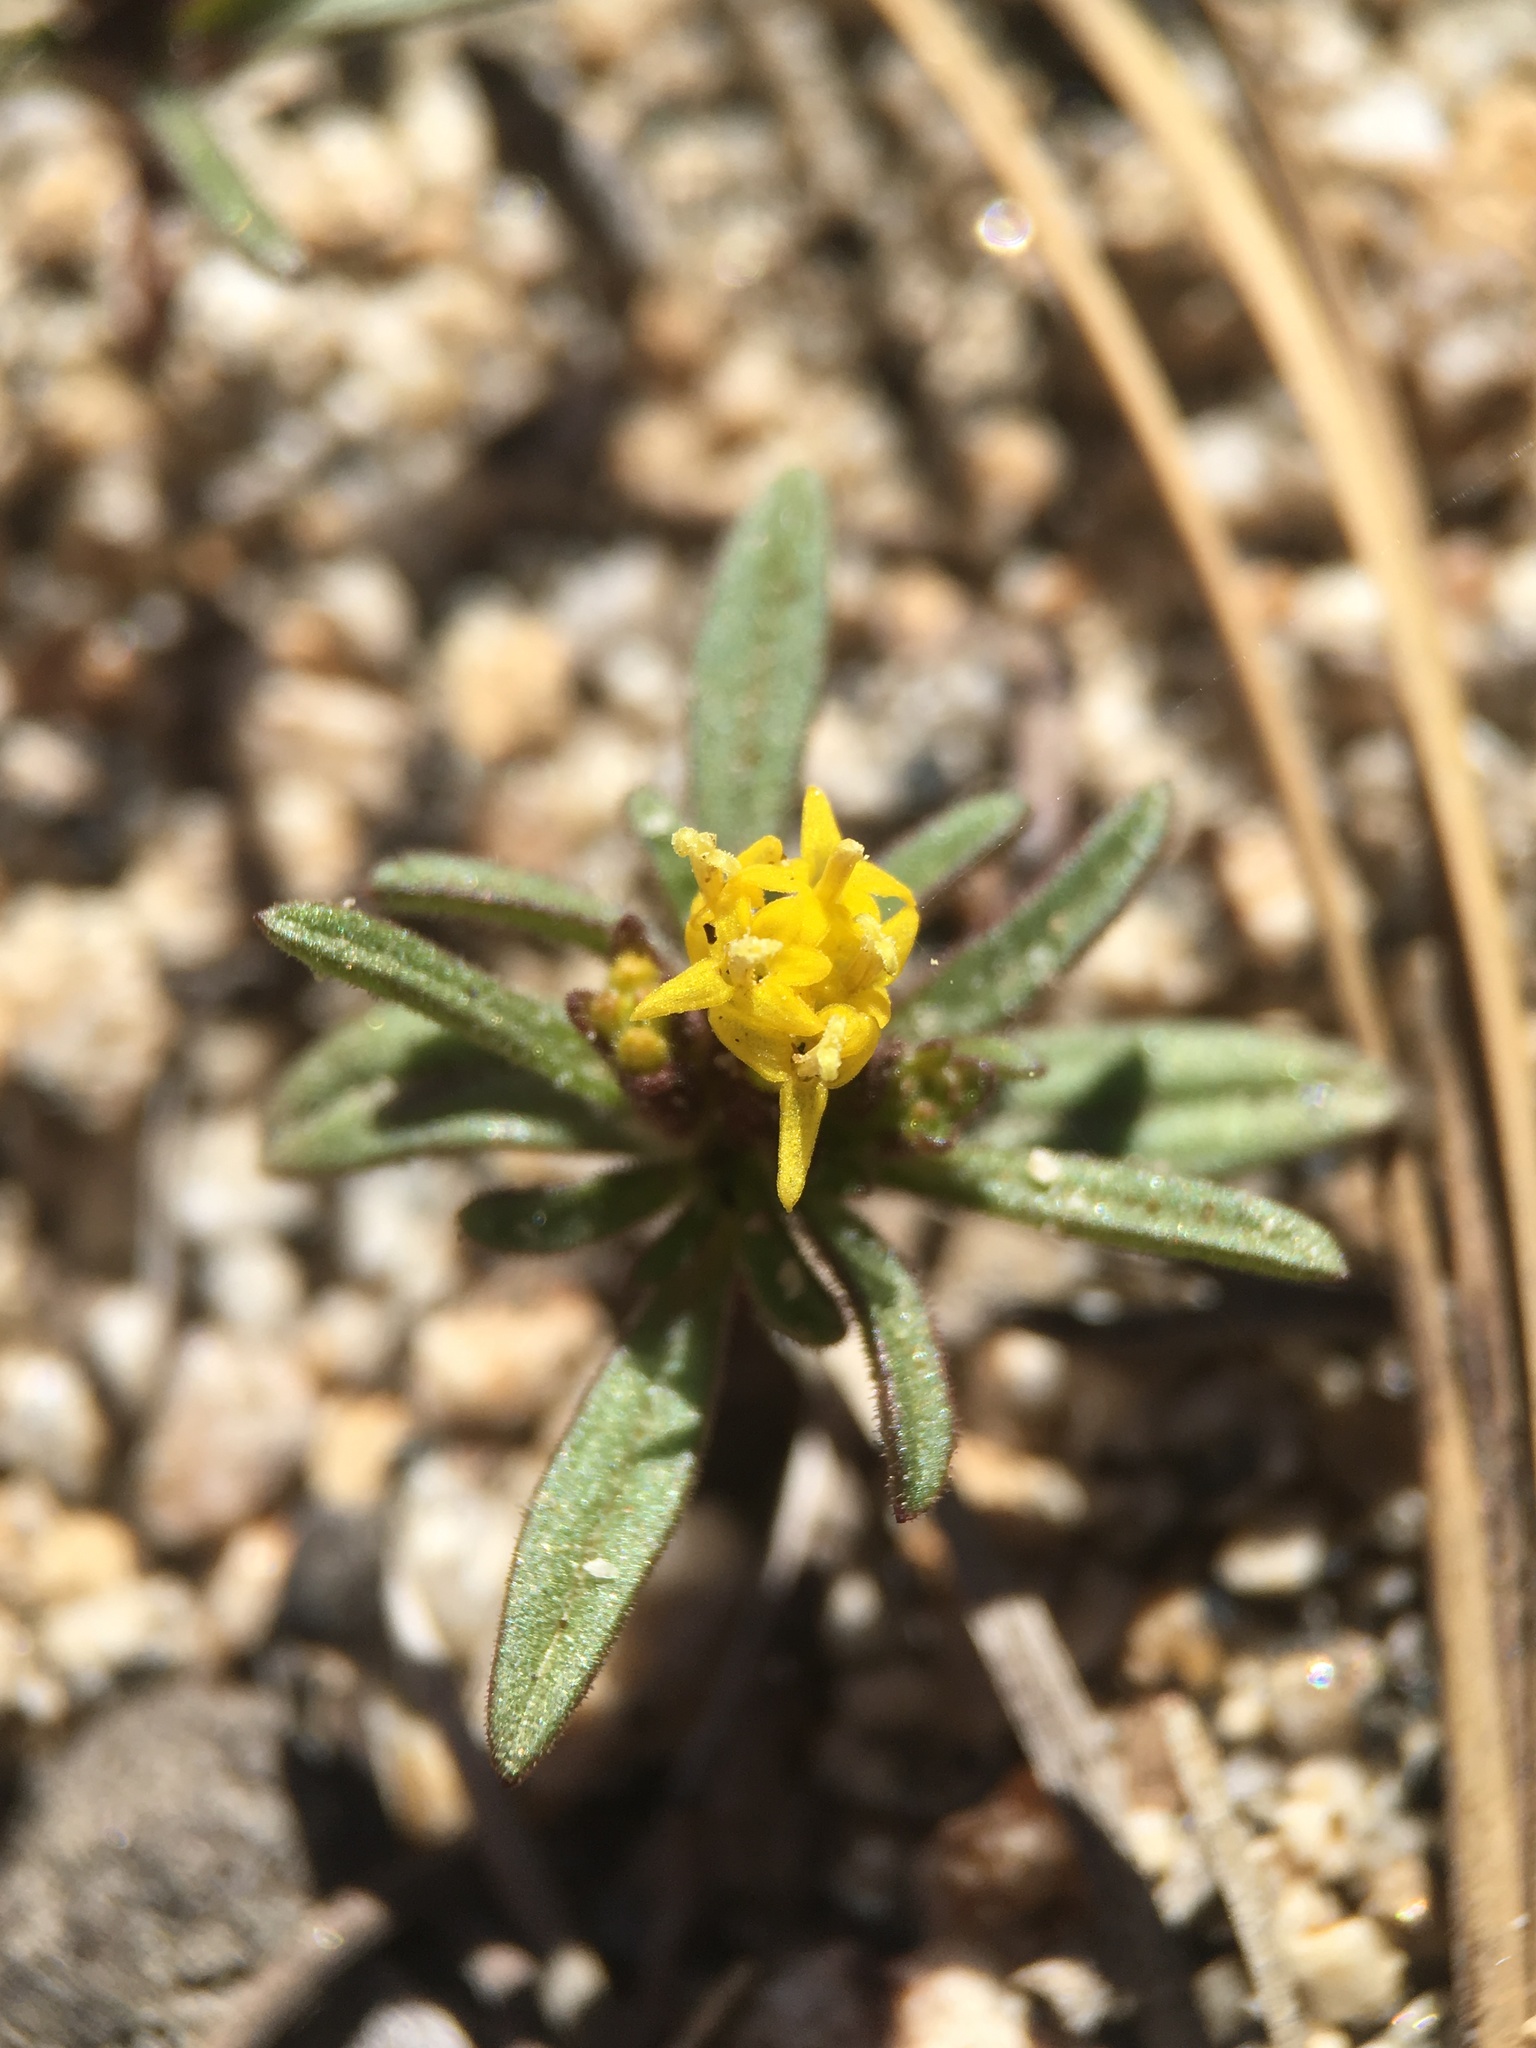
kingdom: Plantae
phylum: Tracheophyta
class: Magnoliopsida
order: Asterales
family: Asteraceae
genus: Orochaenactis
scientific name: Orochaenactis thysanocarpha
